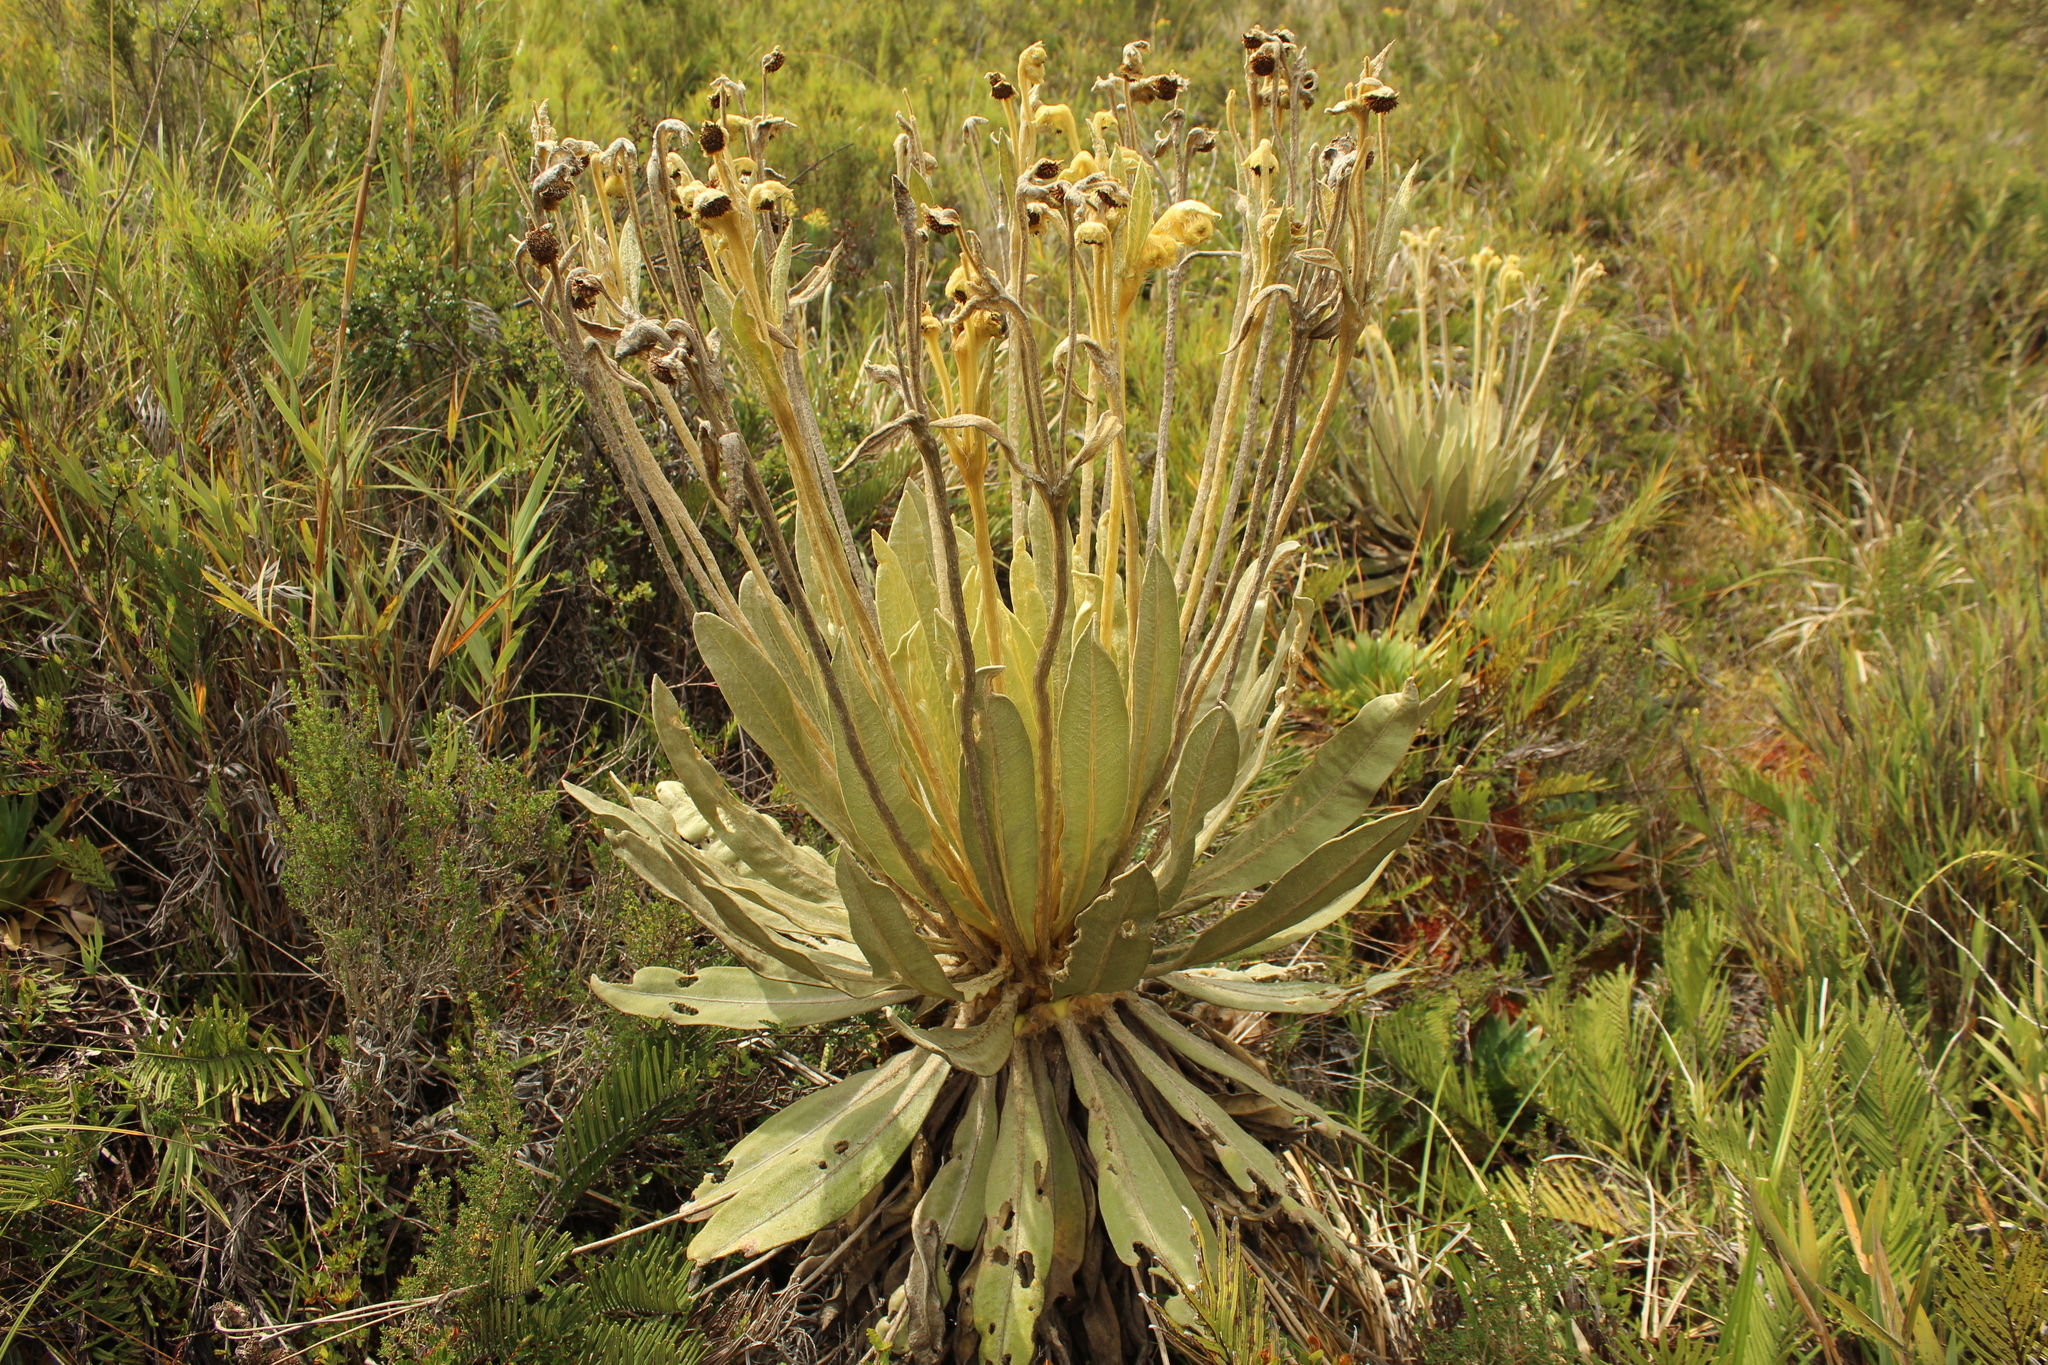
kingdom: Plantae
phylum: Tracheophyta
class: Magnoliopsida
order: Asterales
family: Asteraceae
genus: Espeletia
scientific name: Espeletia murilloi
